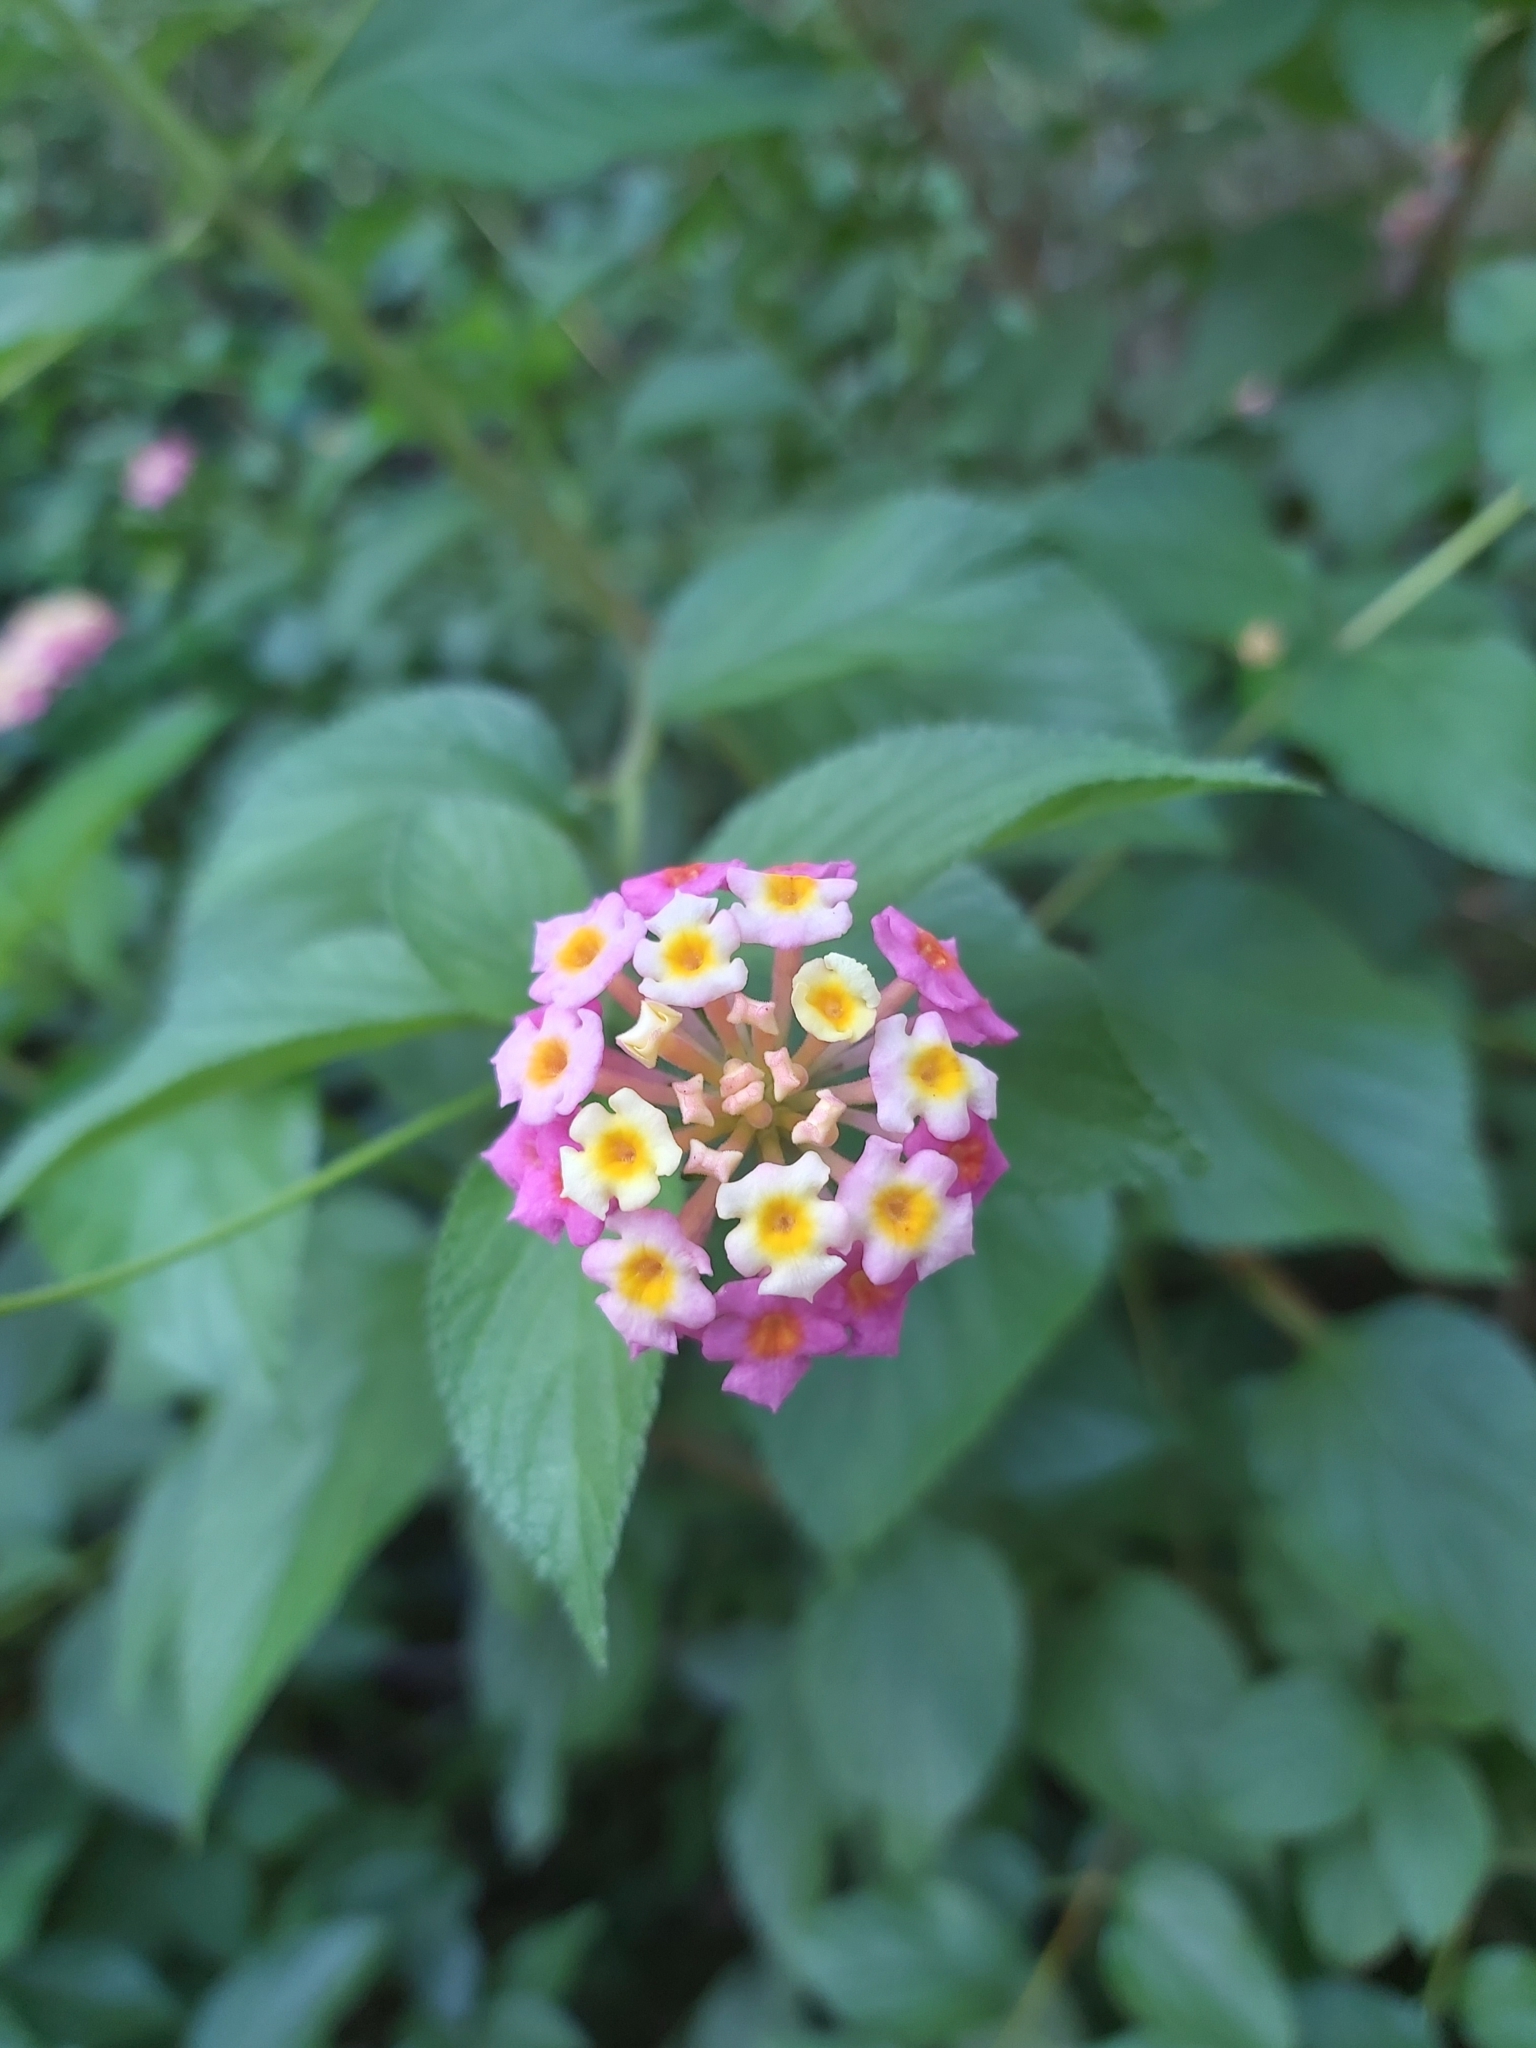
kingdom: Plantae
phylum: Tracheophyta
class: Magnoliopsida
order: Lamiales
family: Verbenaceae
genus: Lantana
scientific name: Lantana camara
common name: Lantana
